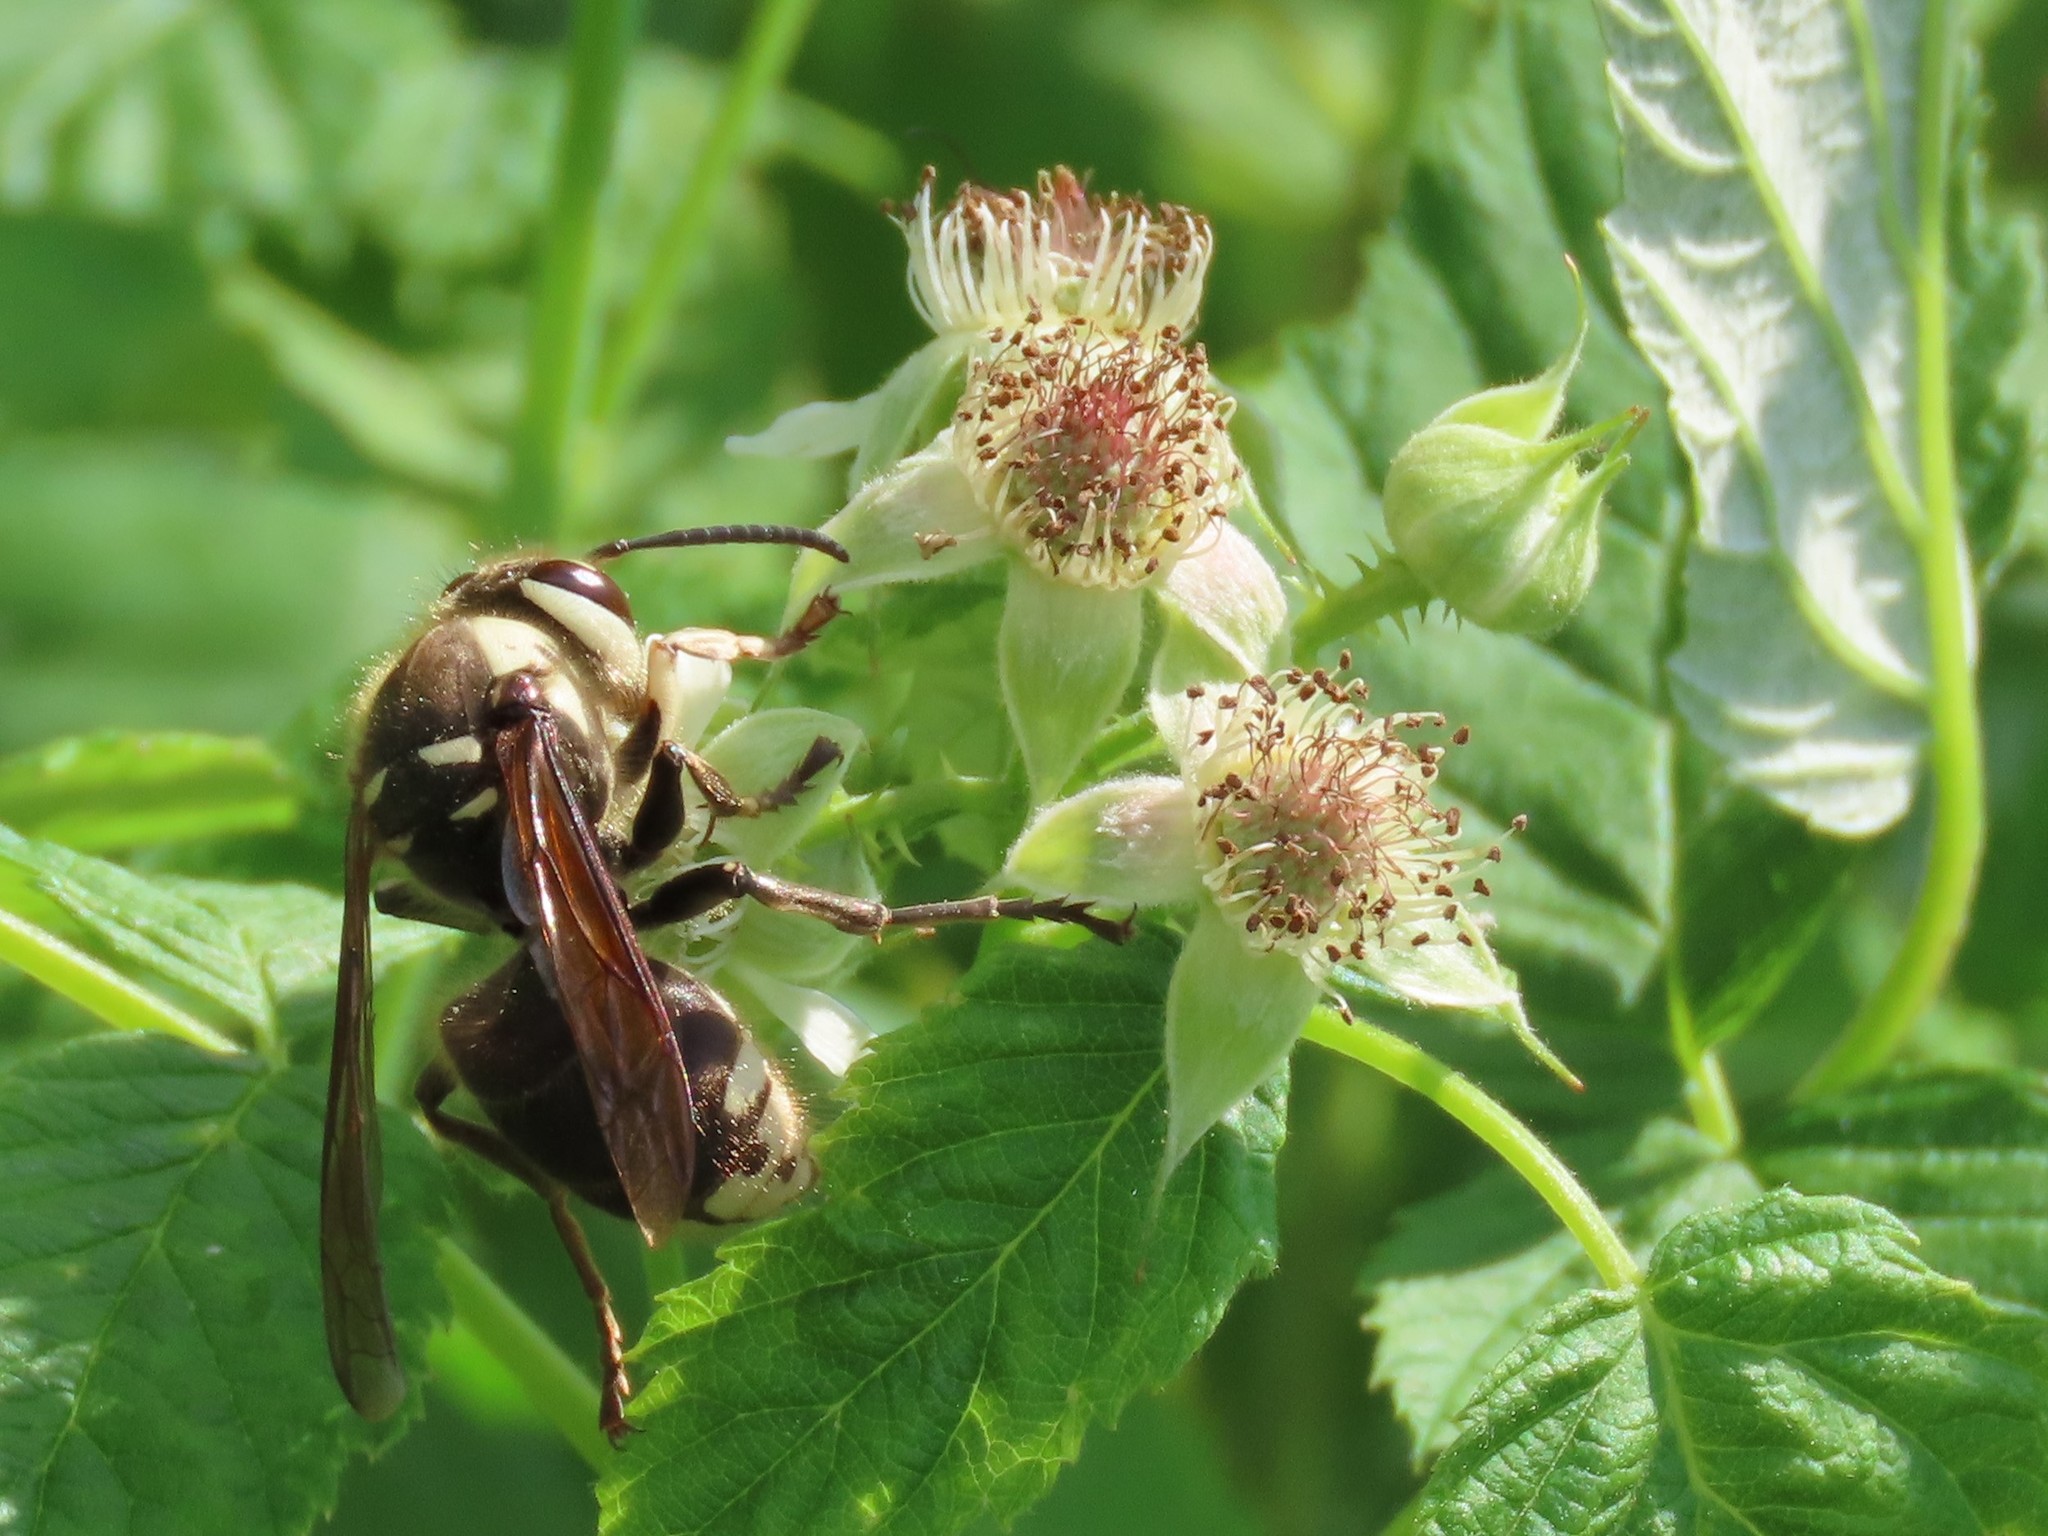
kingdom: Animalia
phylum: Arthropoda
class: Insecta
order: Hymenoptera
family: Vespidae
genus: Dolichovespula
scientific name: Dolichovespula maculata
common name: Bald-faced hornet
